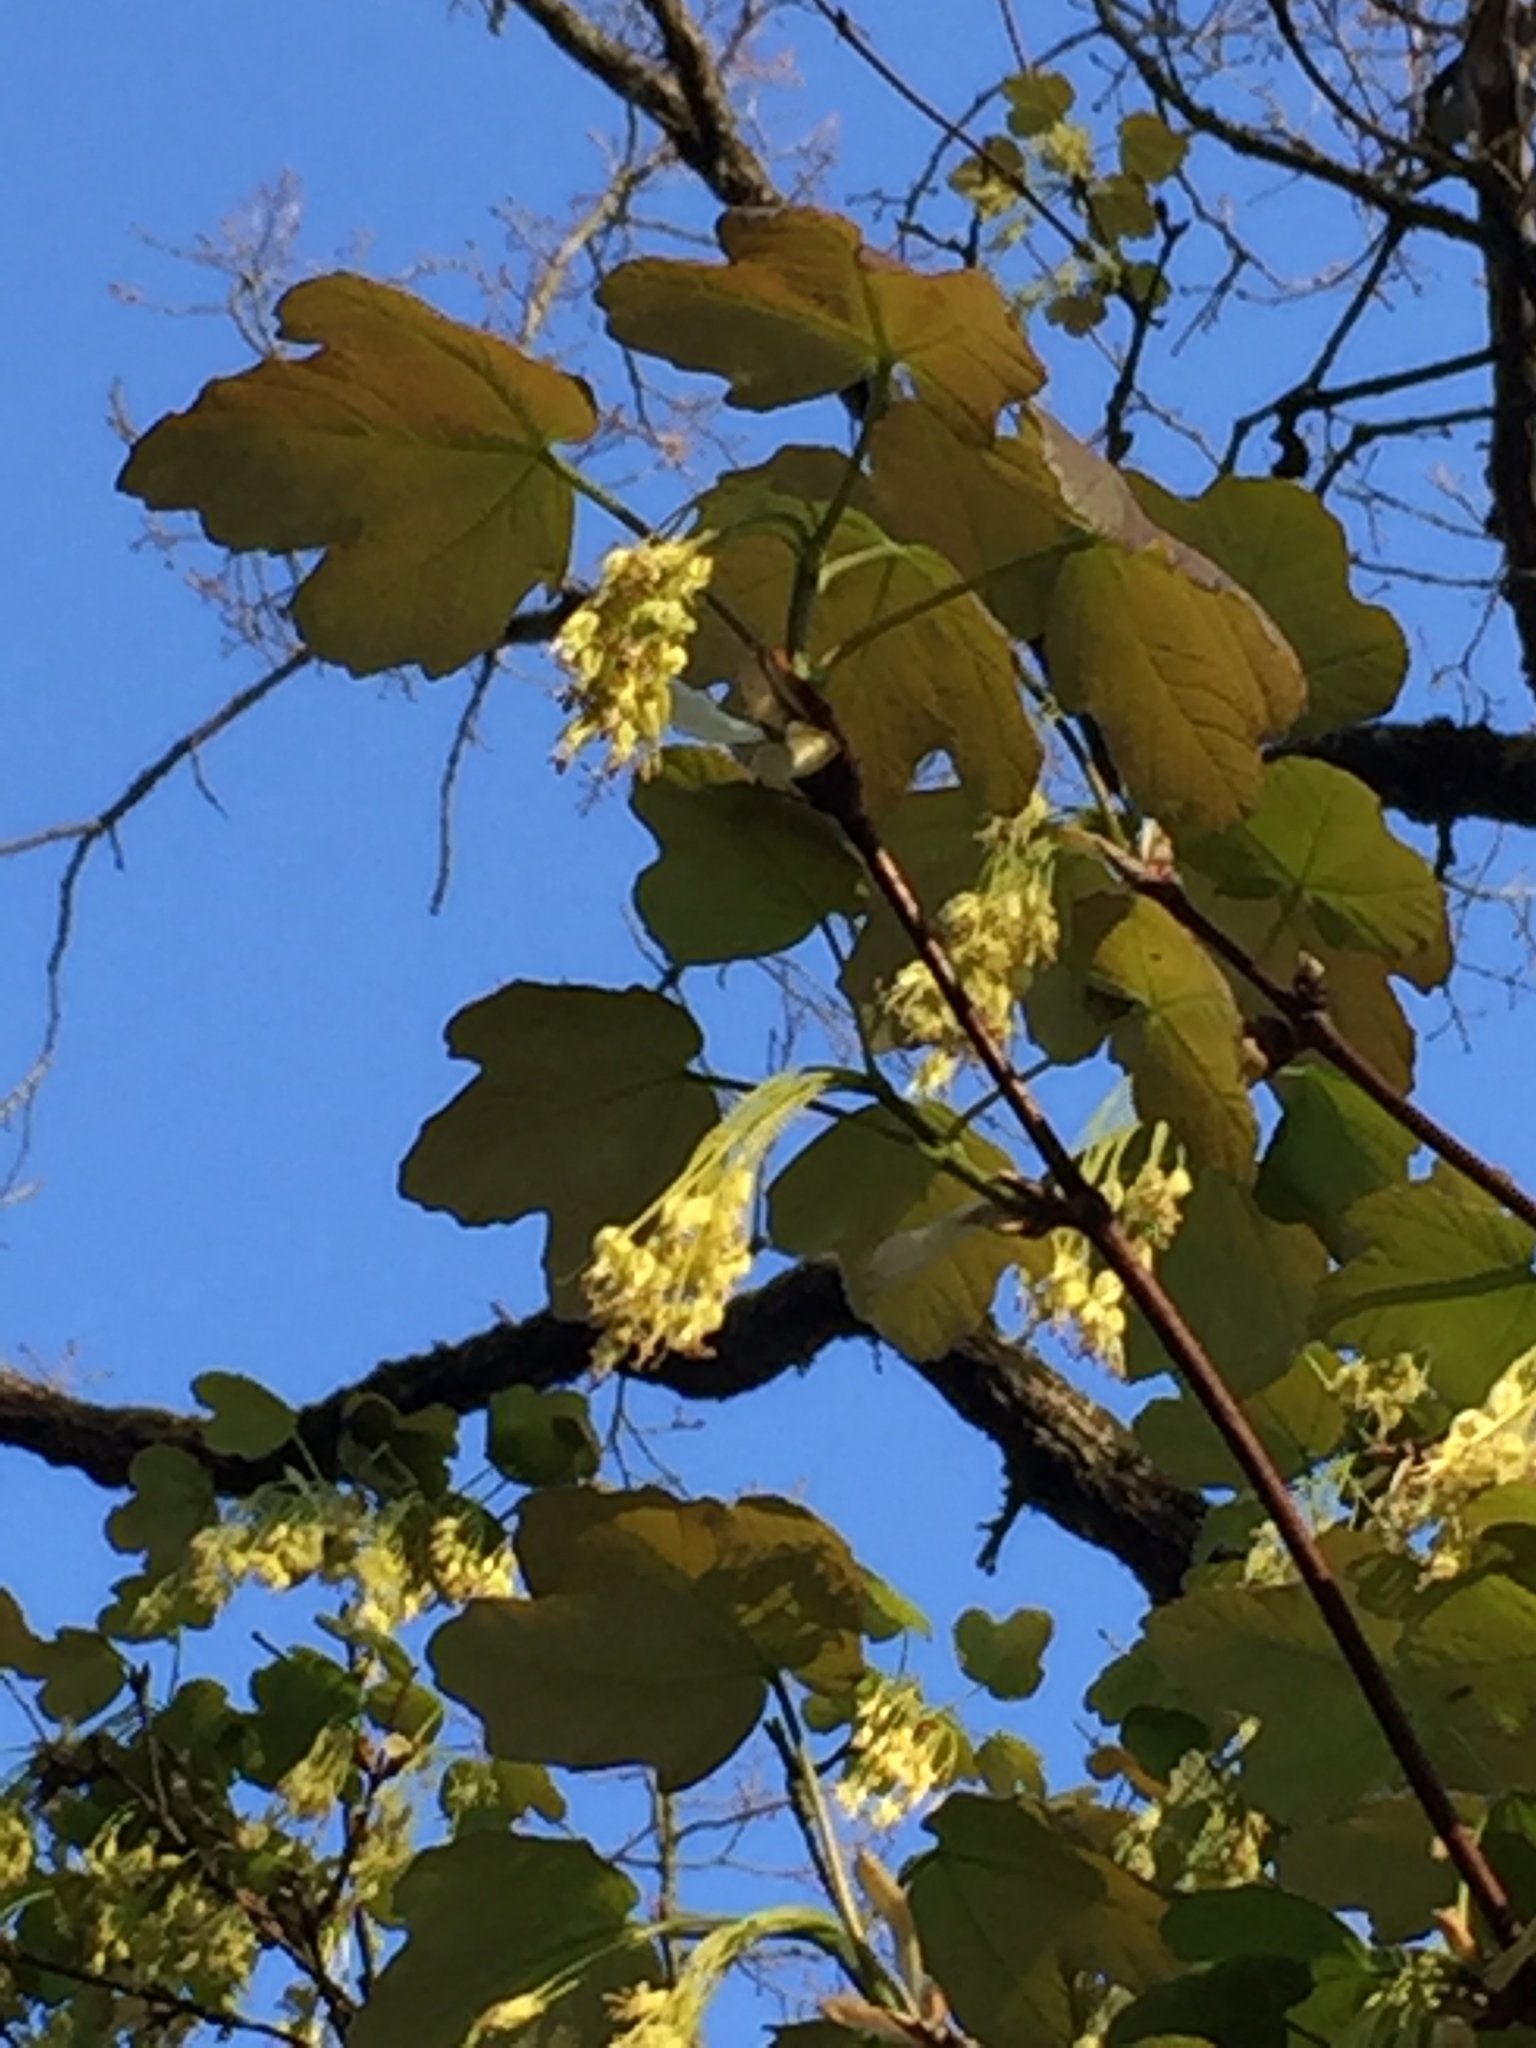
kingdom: Plantae
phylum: Tracheophyta
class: Magnoliopsida
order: Sapindales
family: Sapindaceae
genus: Acer
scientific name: Acer opalus
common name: Italian maple
